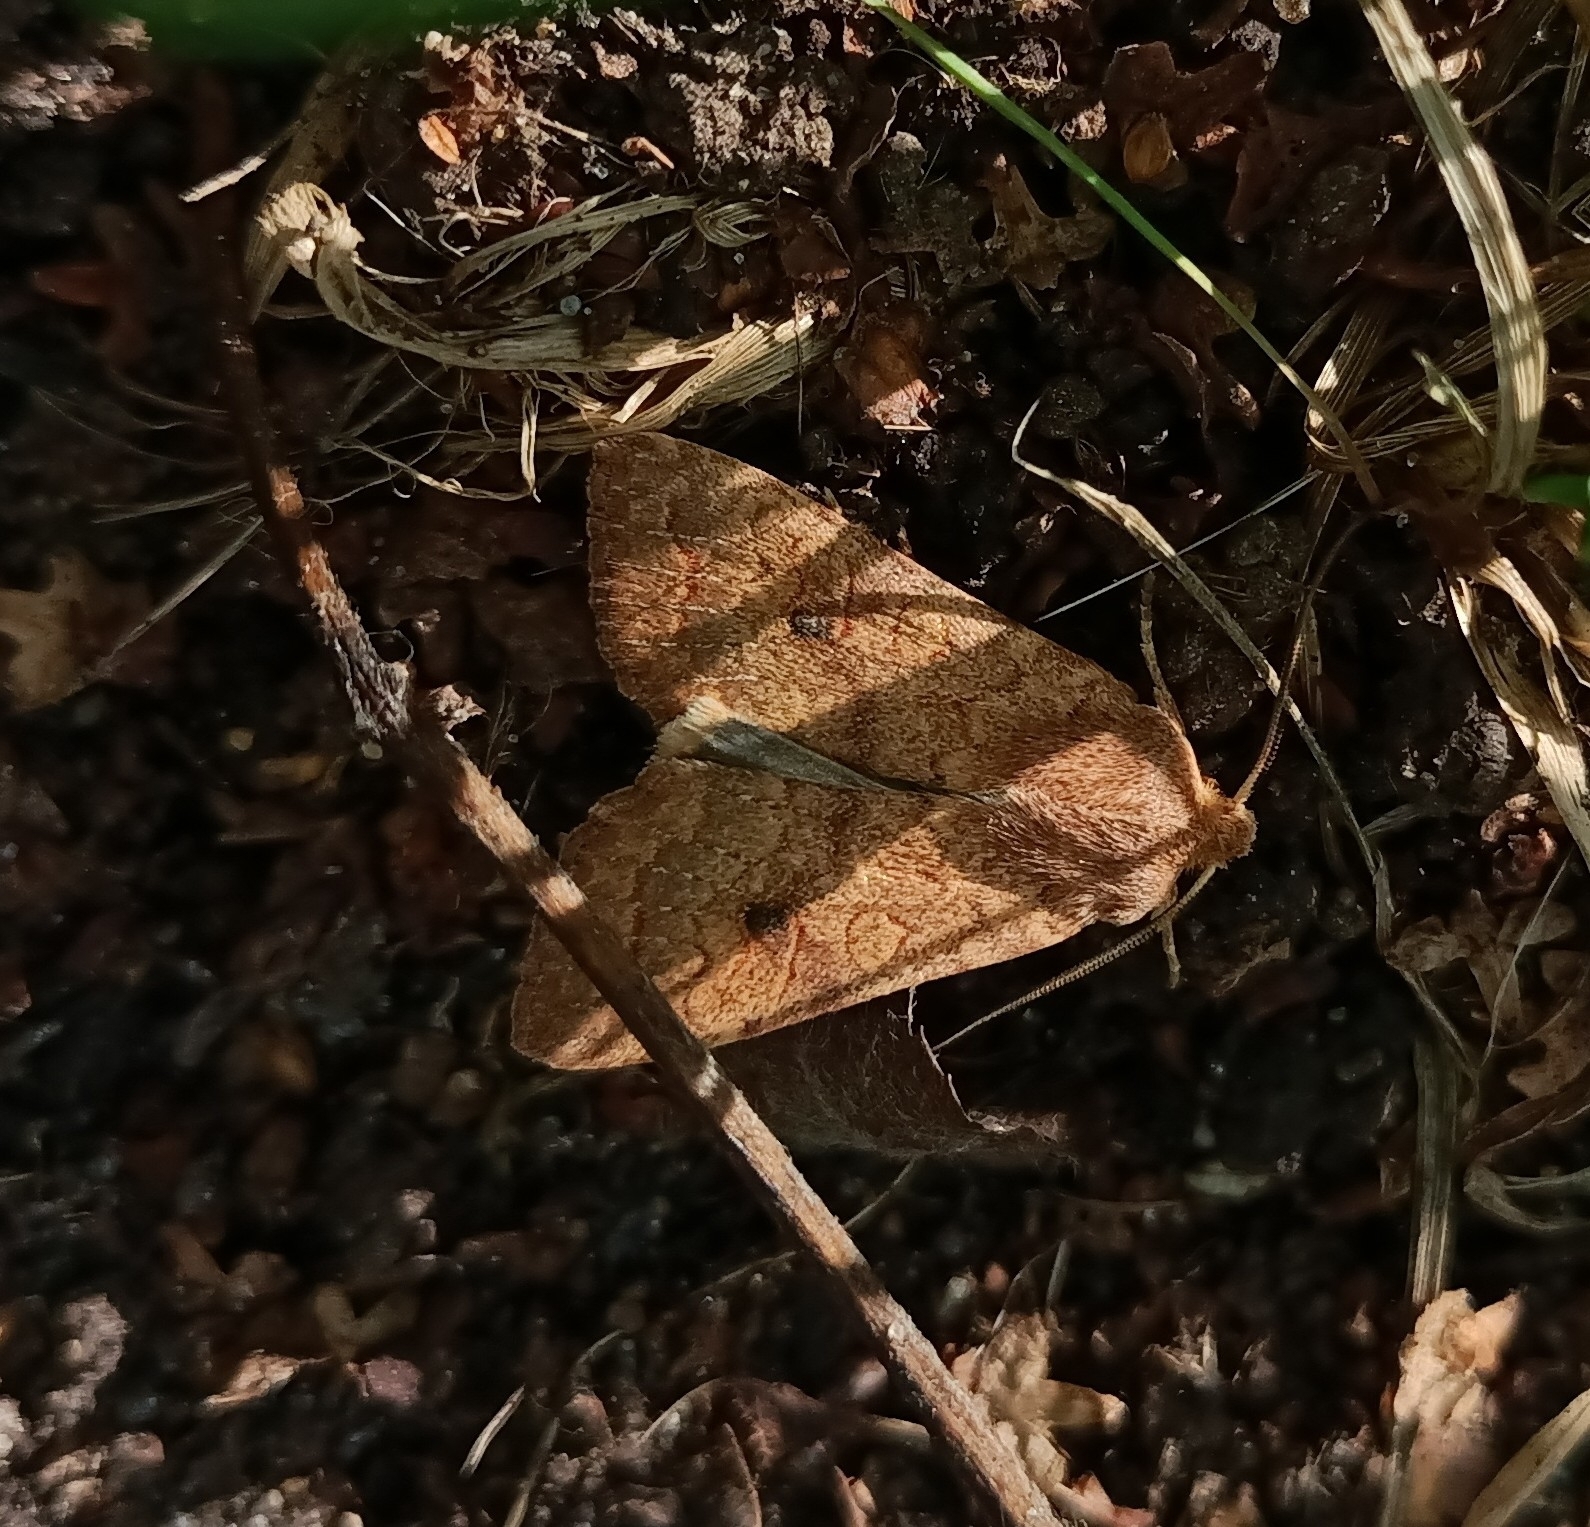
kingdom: Animalia
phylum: Arthropoda
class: Insecta
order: Lepidoptera
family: Noctuidae
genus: Sunira
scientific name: Sunira circellaris
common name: Brick
